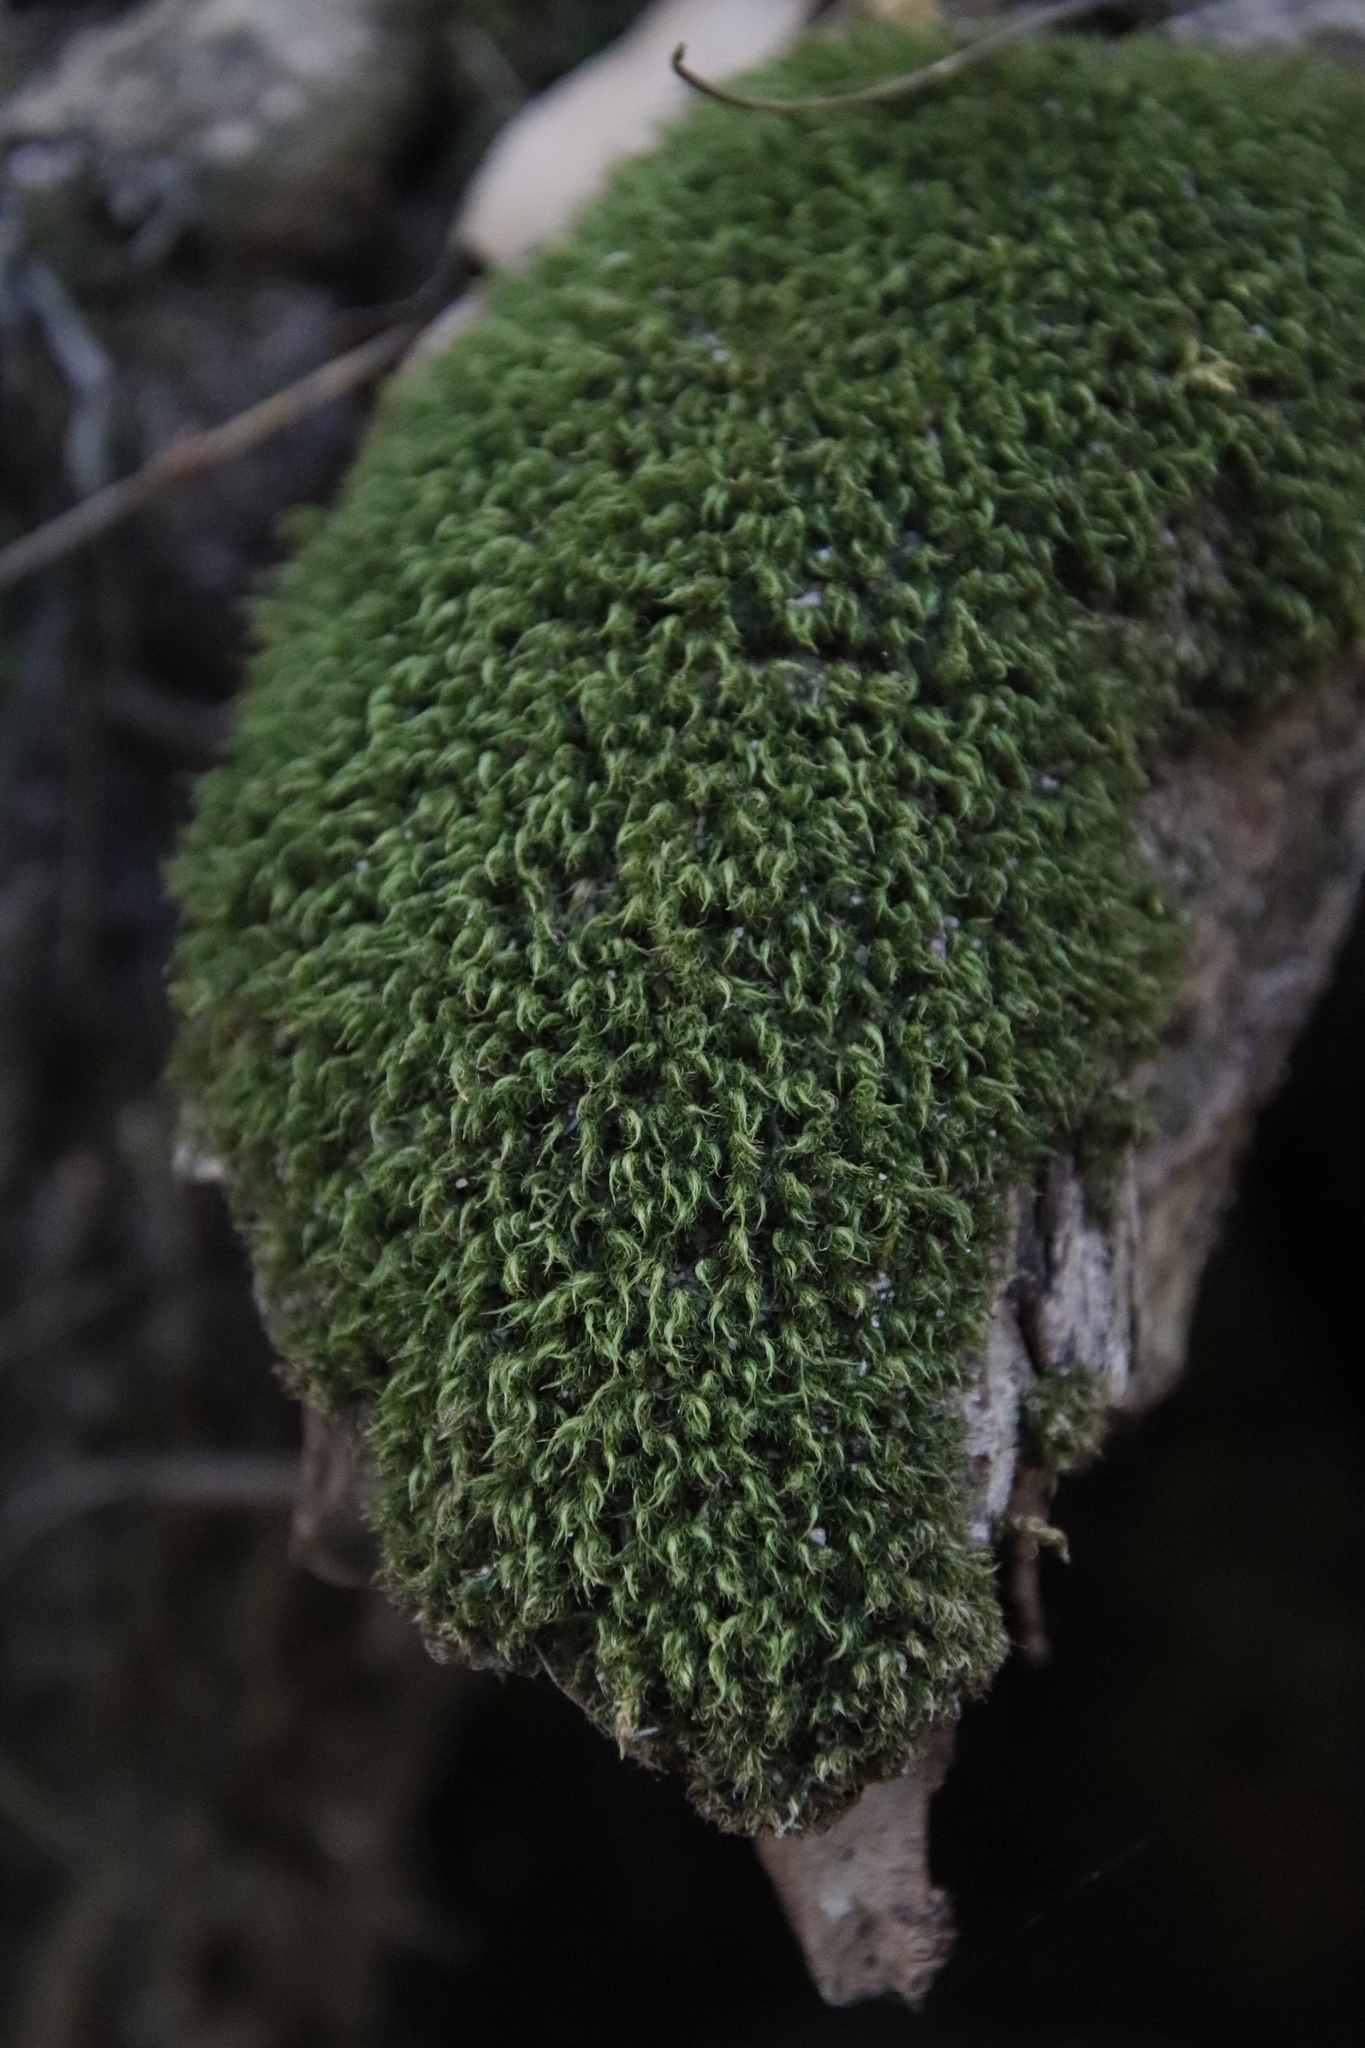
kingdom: Plantae
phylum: Bryophyta
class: Bryopsida
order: Dicranales
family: Dicranaceae
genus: Leucoloma
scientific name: Leucoloma sprengelianum
